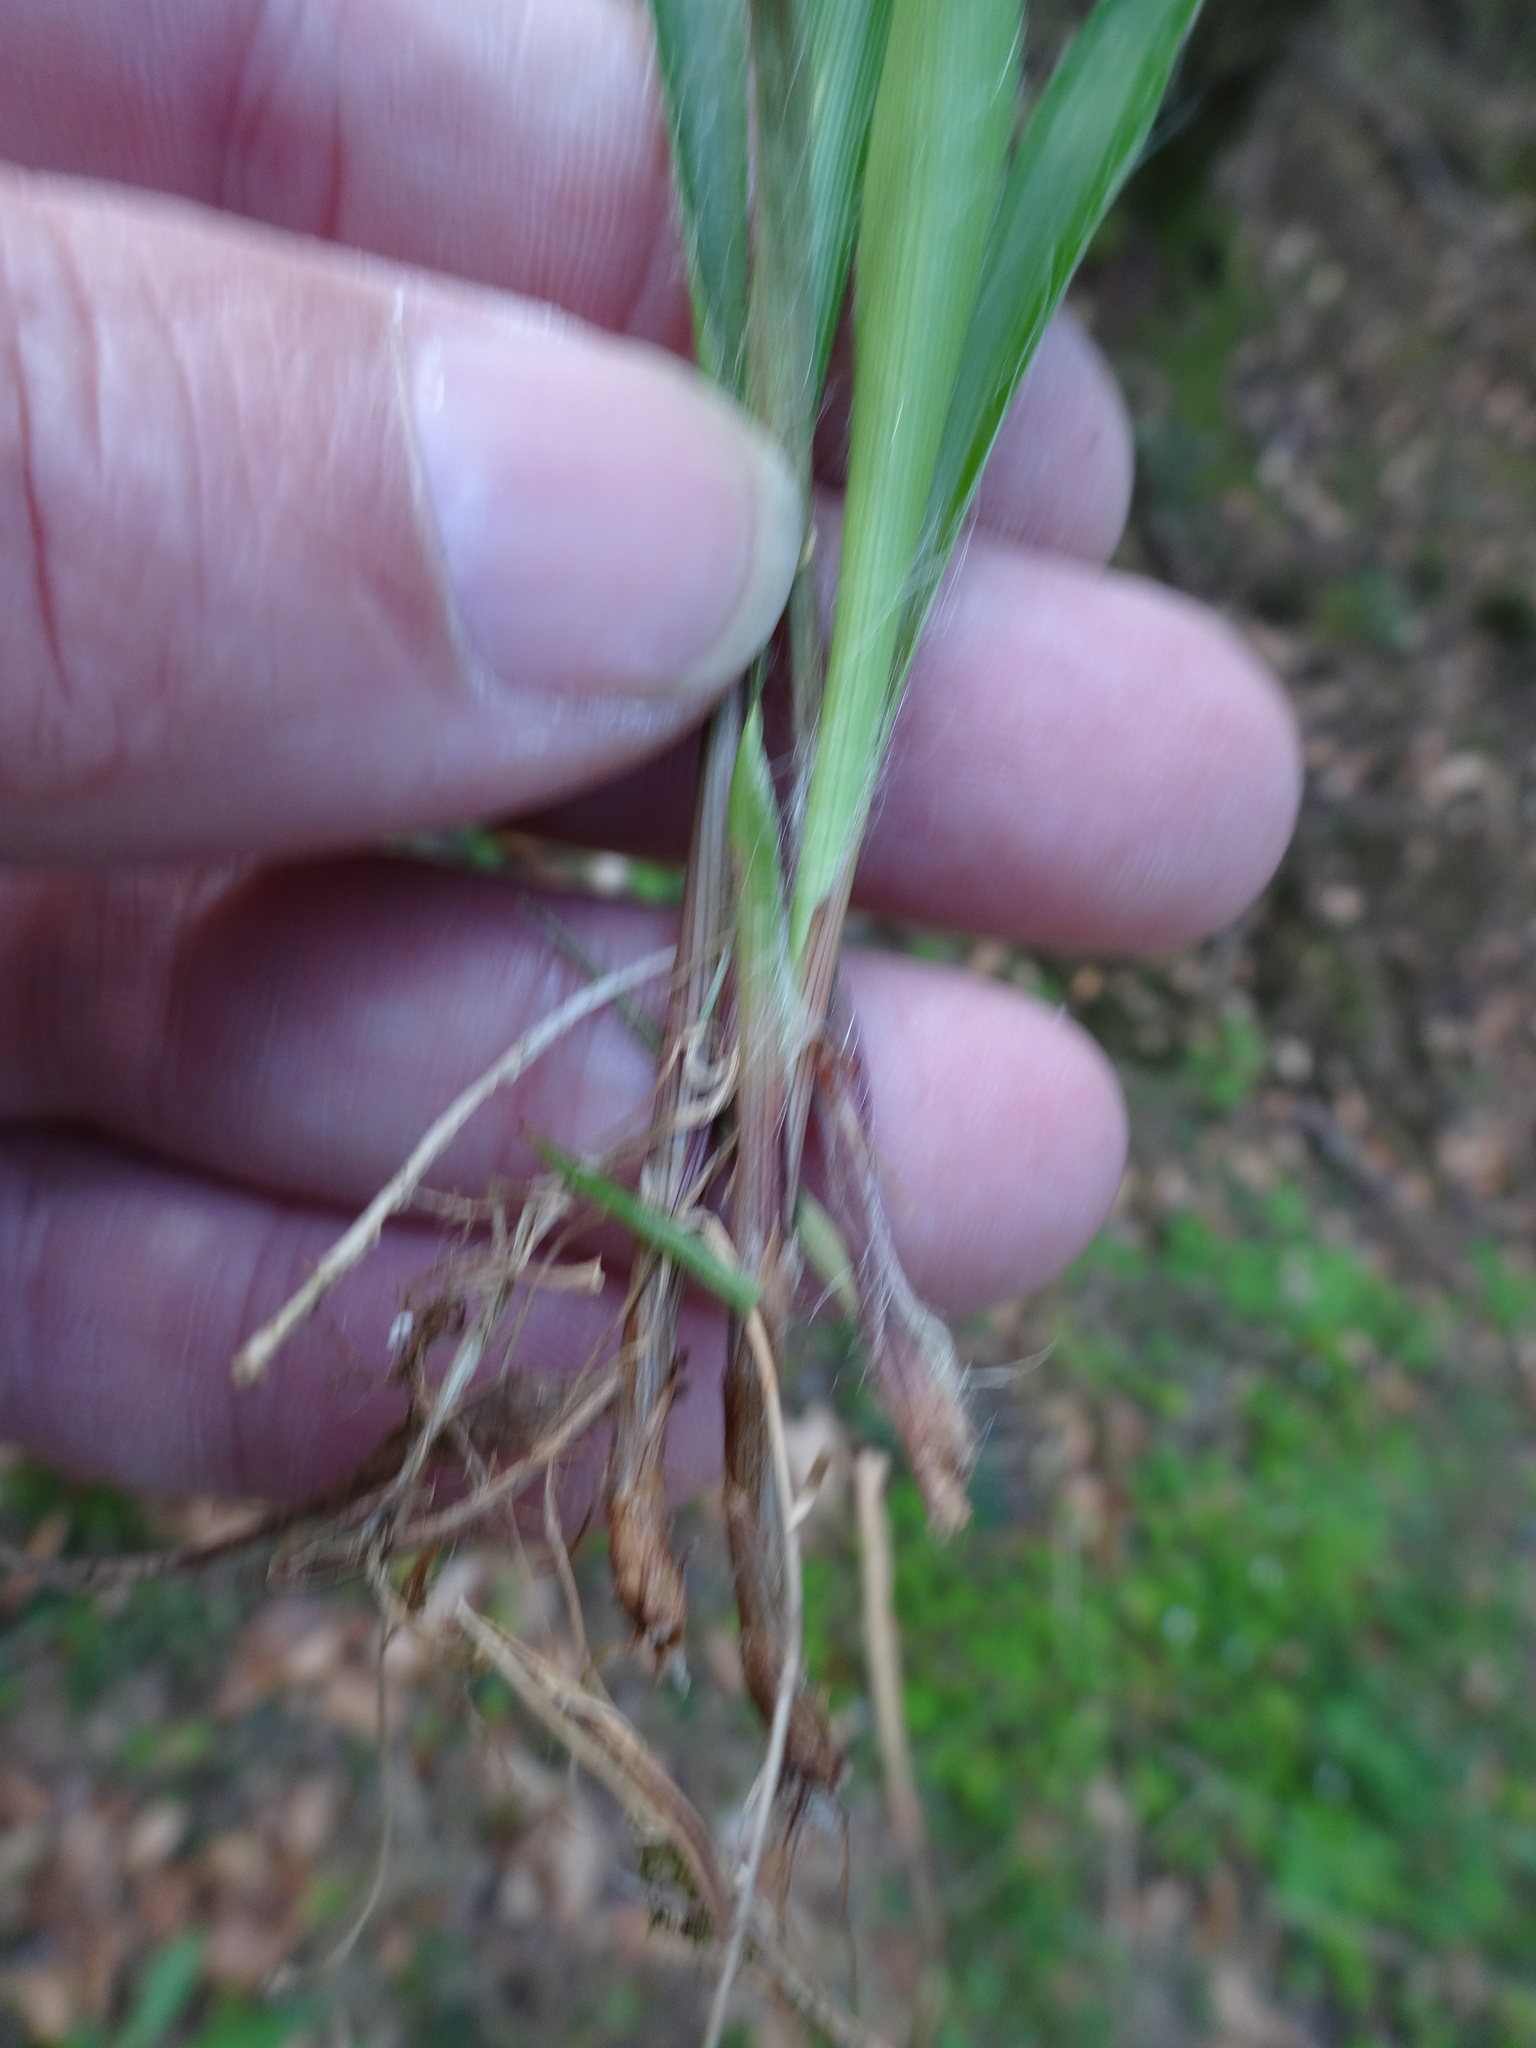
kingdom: Plantae
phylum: Tracheophyta
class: Liliopsida
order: Poales
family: Juncaceae
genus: Luzula
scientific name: Luzula pilosa
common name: Hairy wood-rush
